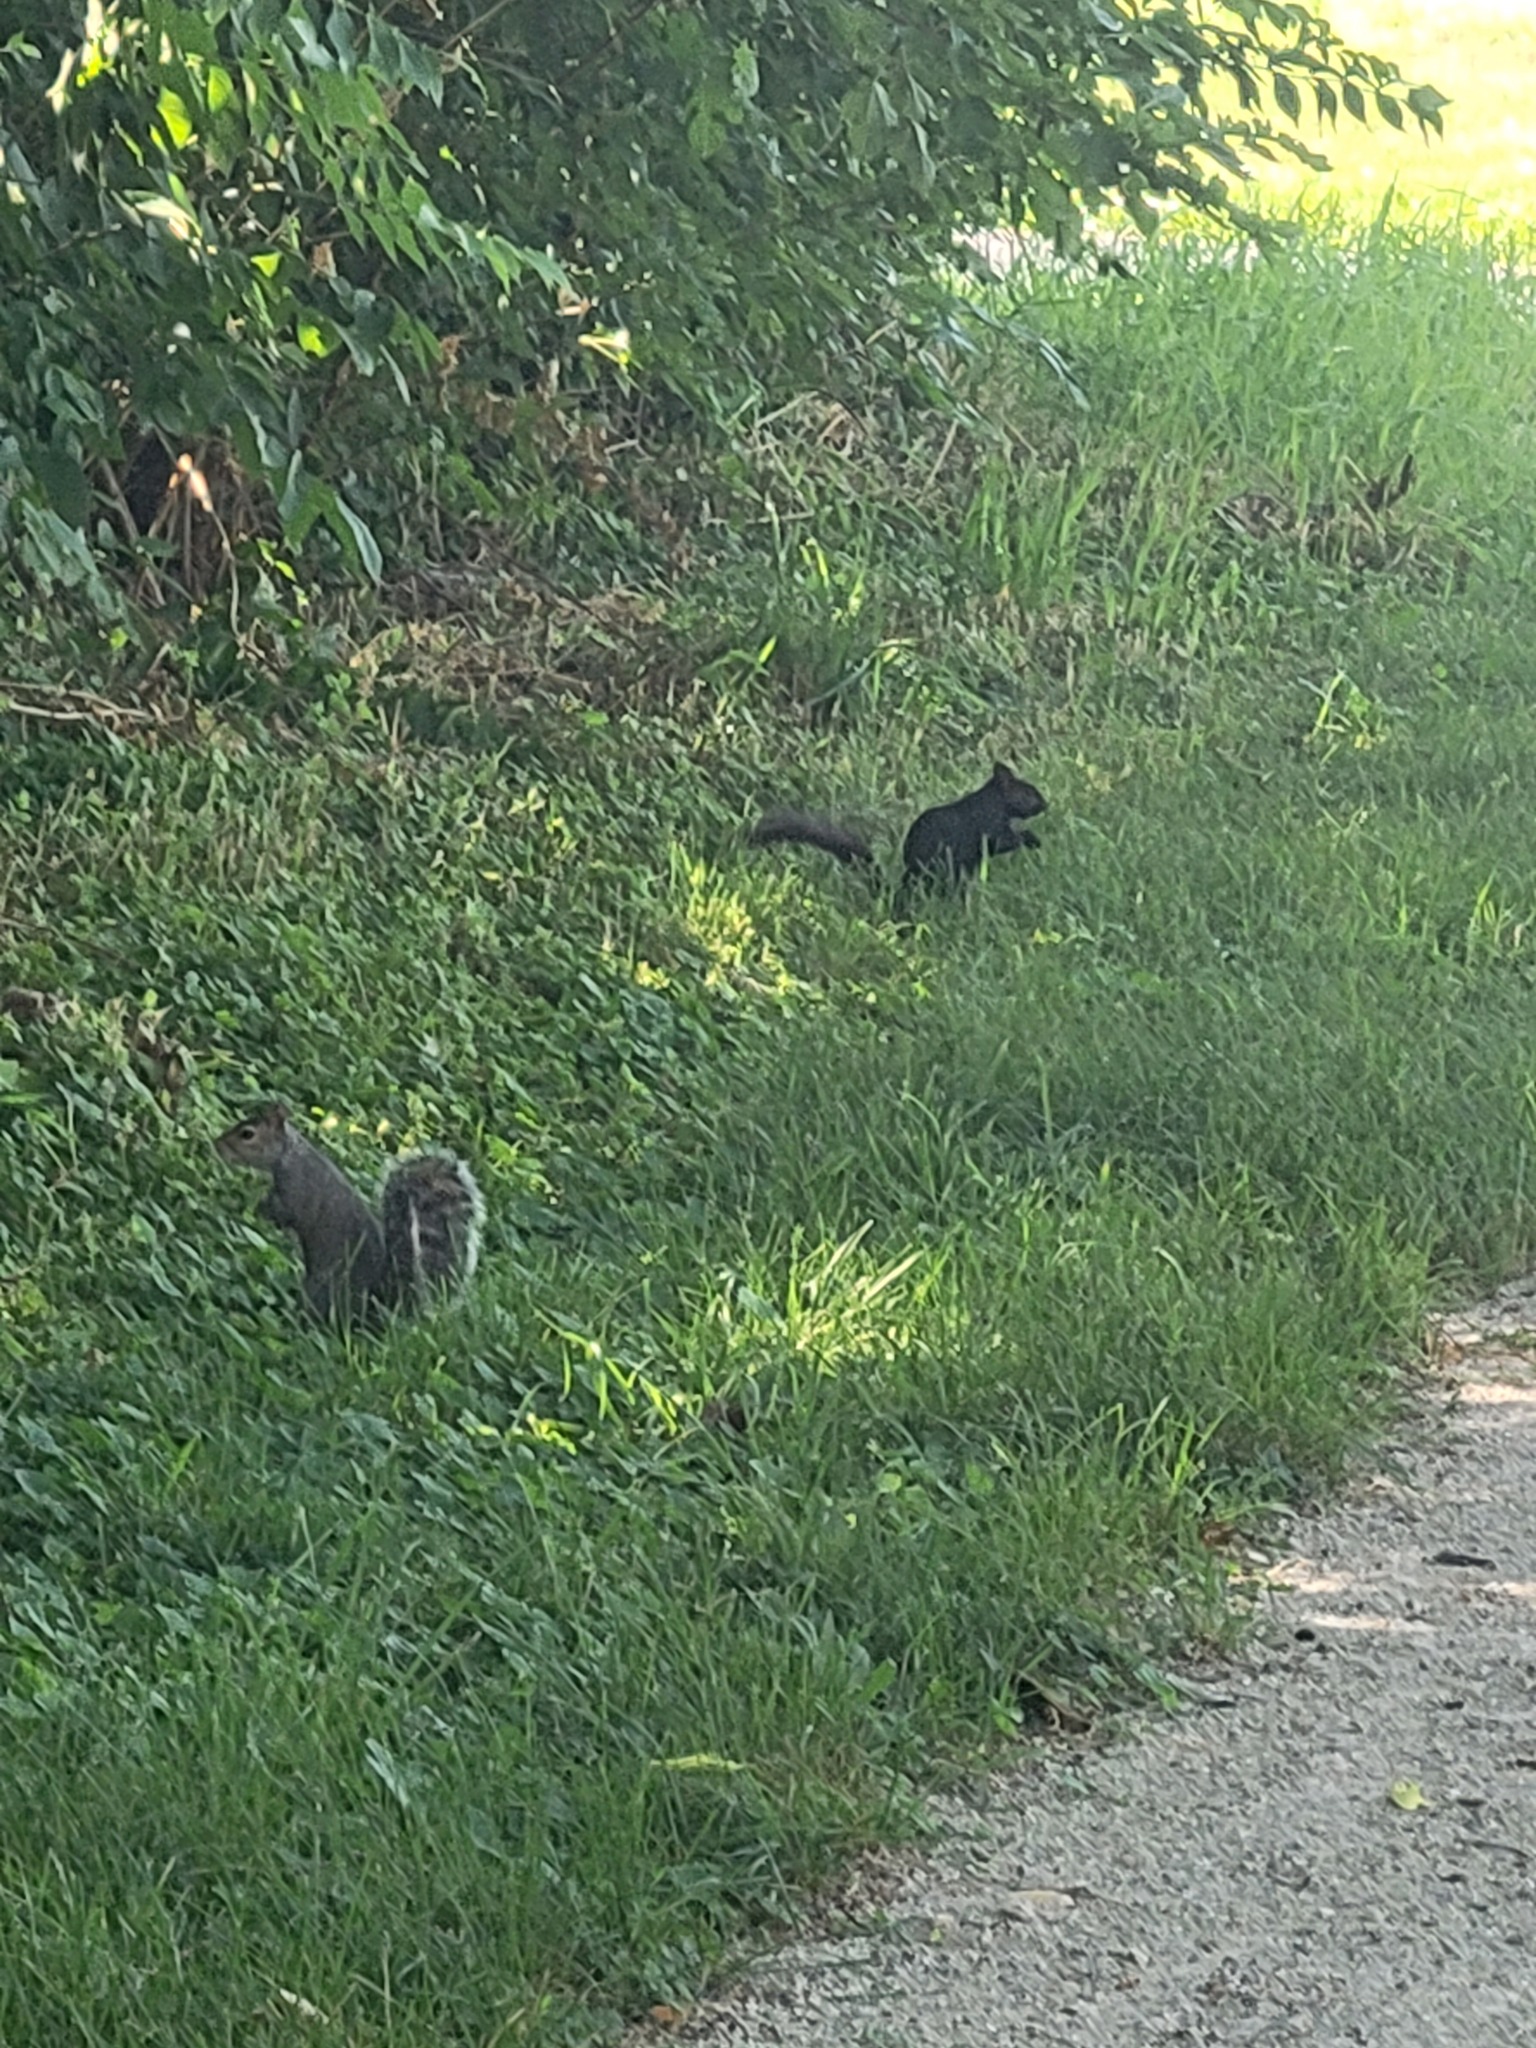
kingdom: Animalia
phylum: Chordata
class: Mammalia
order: Rodentia
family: Sciuridae
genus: Sciurus
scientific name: Sciurus carolinensis
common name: Eastern gray squirrel
